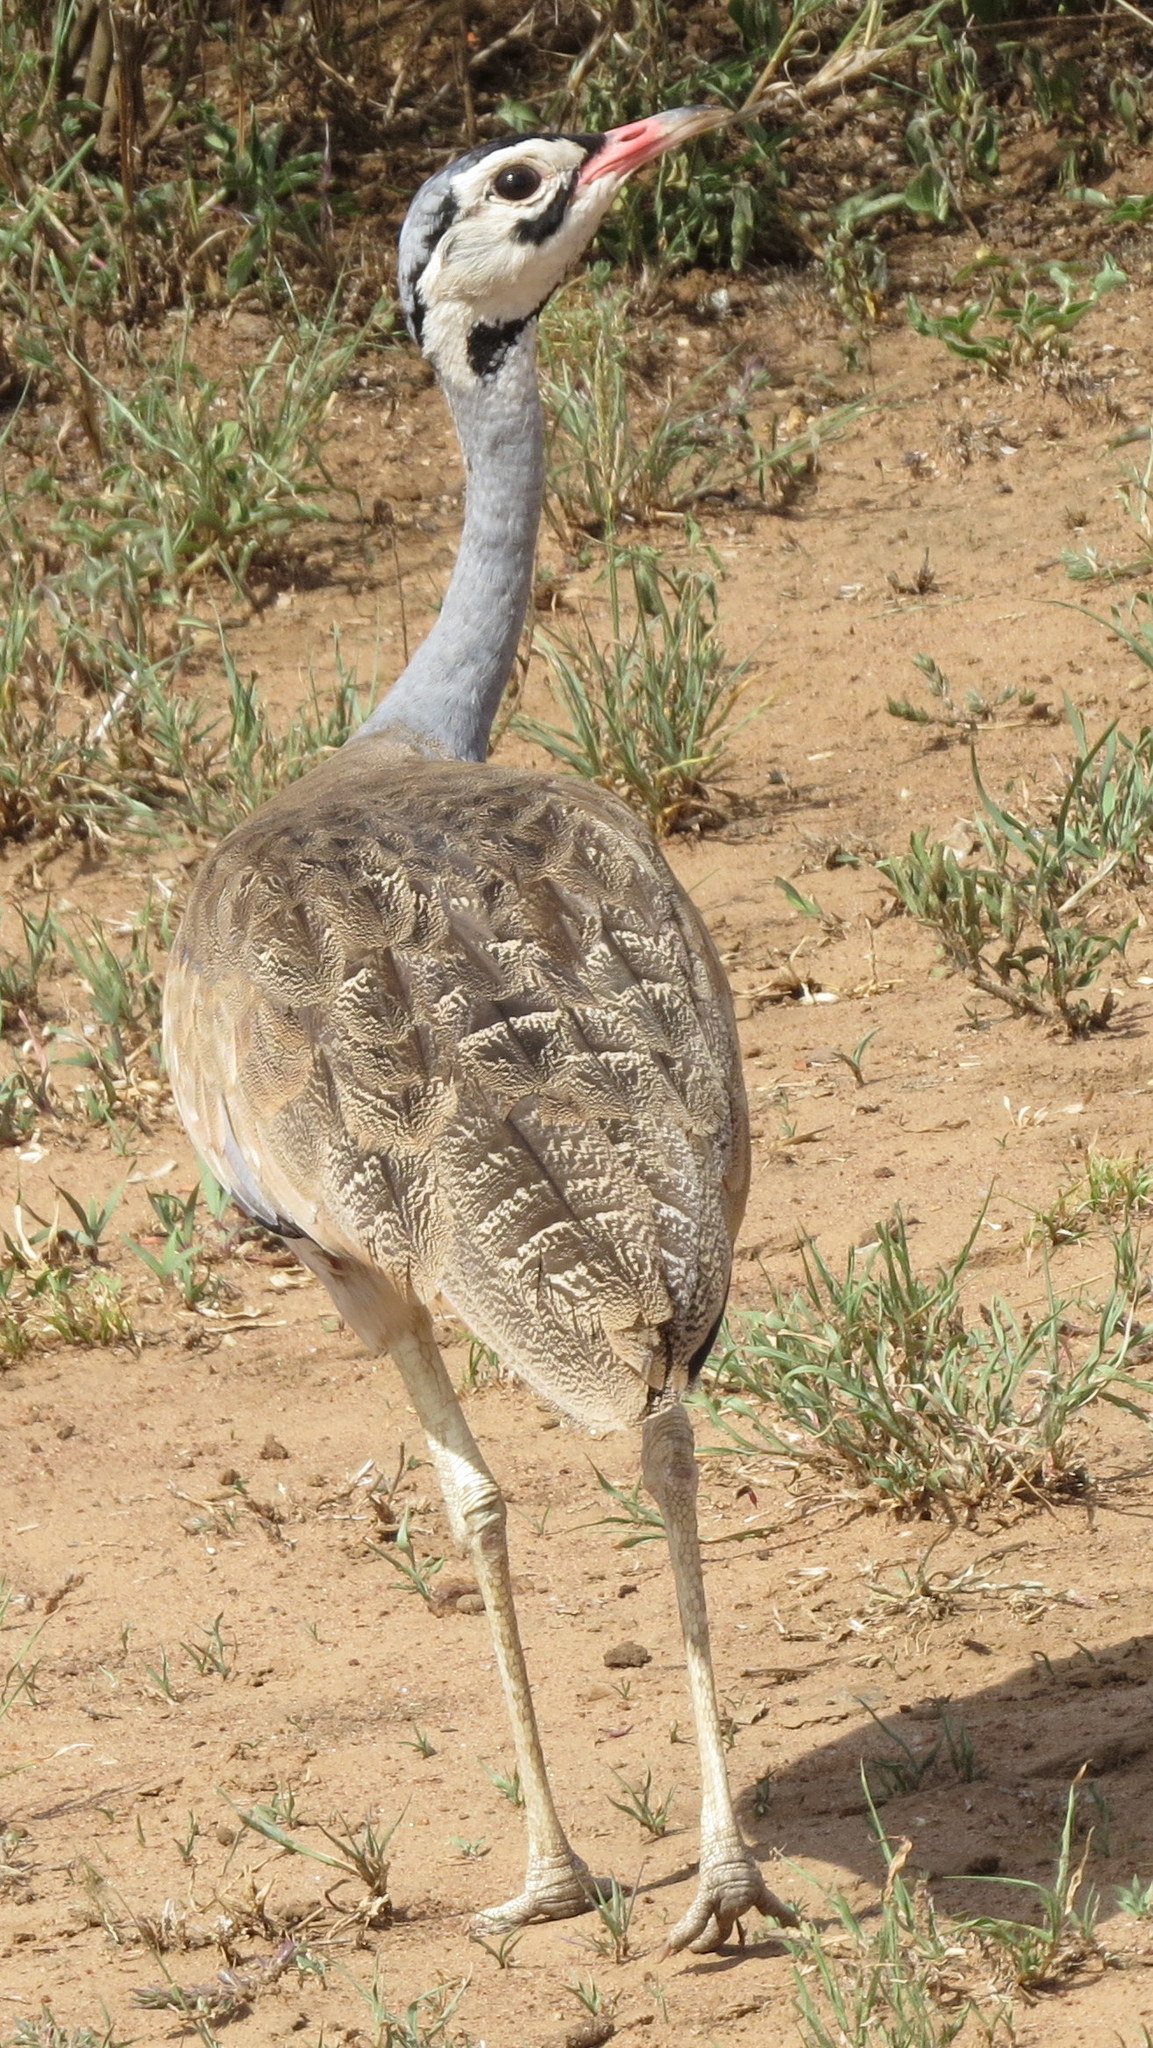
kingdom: Animalia
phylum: Chordata
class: Aves
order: Otidiformes
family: Otididae
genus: Eupodotis
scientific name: Eupodotis senegalensis
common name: White-bellied bustard
